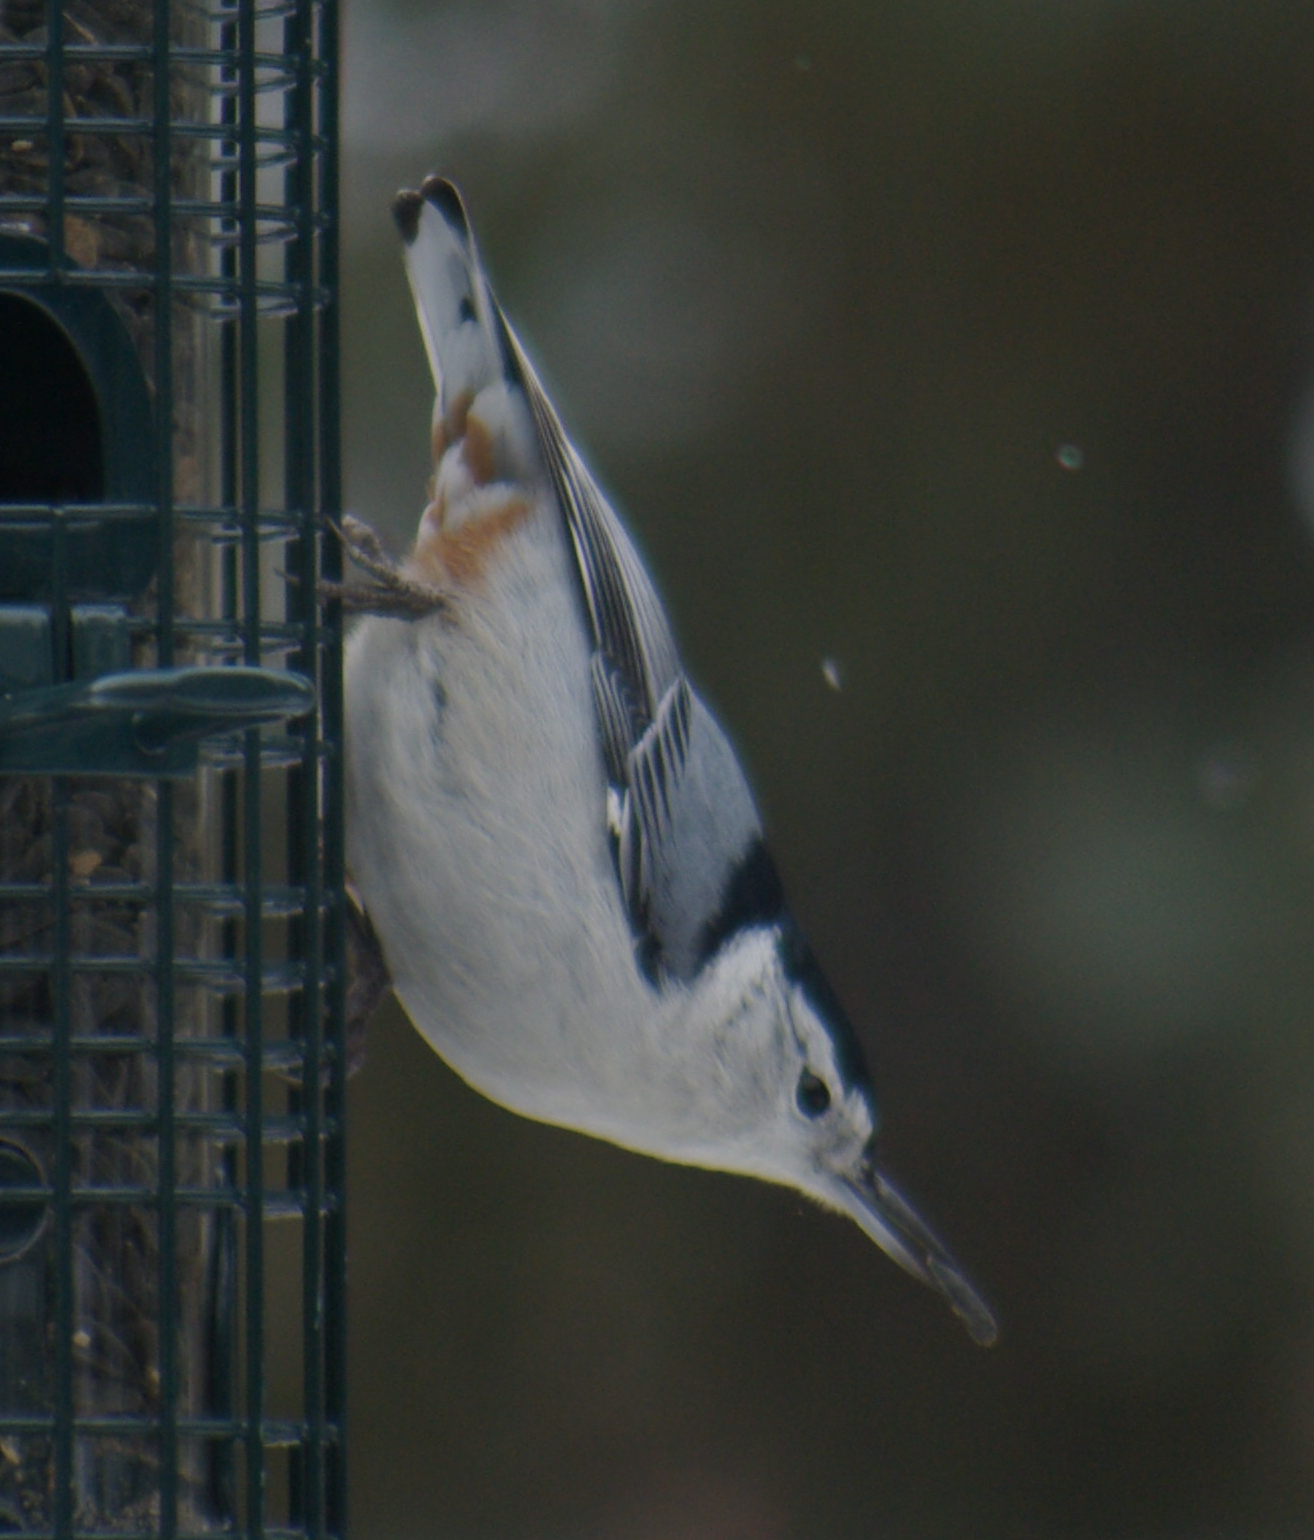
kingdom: Animalia
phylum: Chordata
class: Aves
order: Passeriformes
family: Sittidae
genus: Sitta
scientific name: Sitta carolinensis
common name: White-breasted nuthatch
